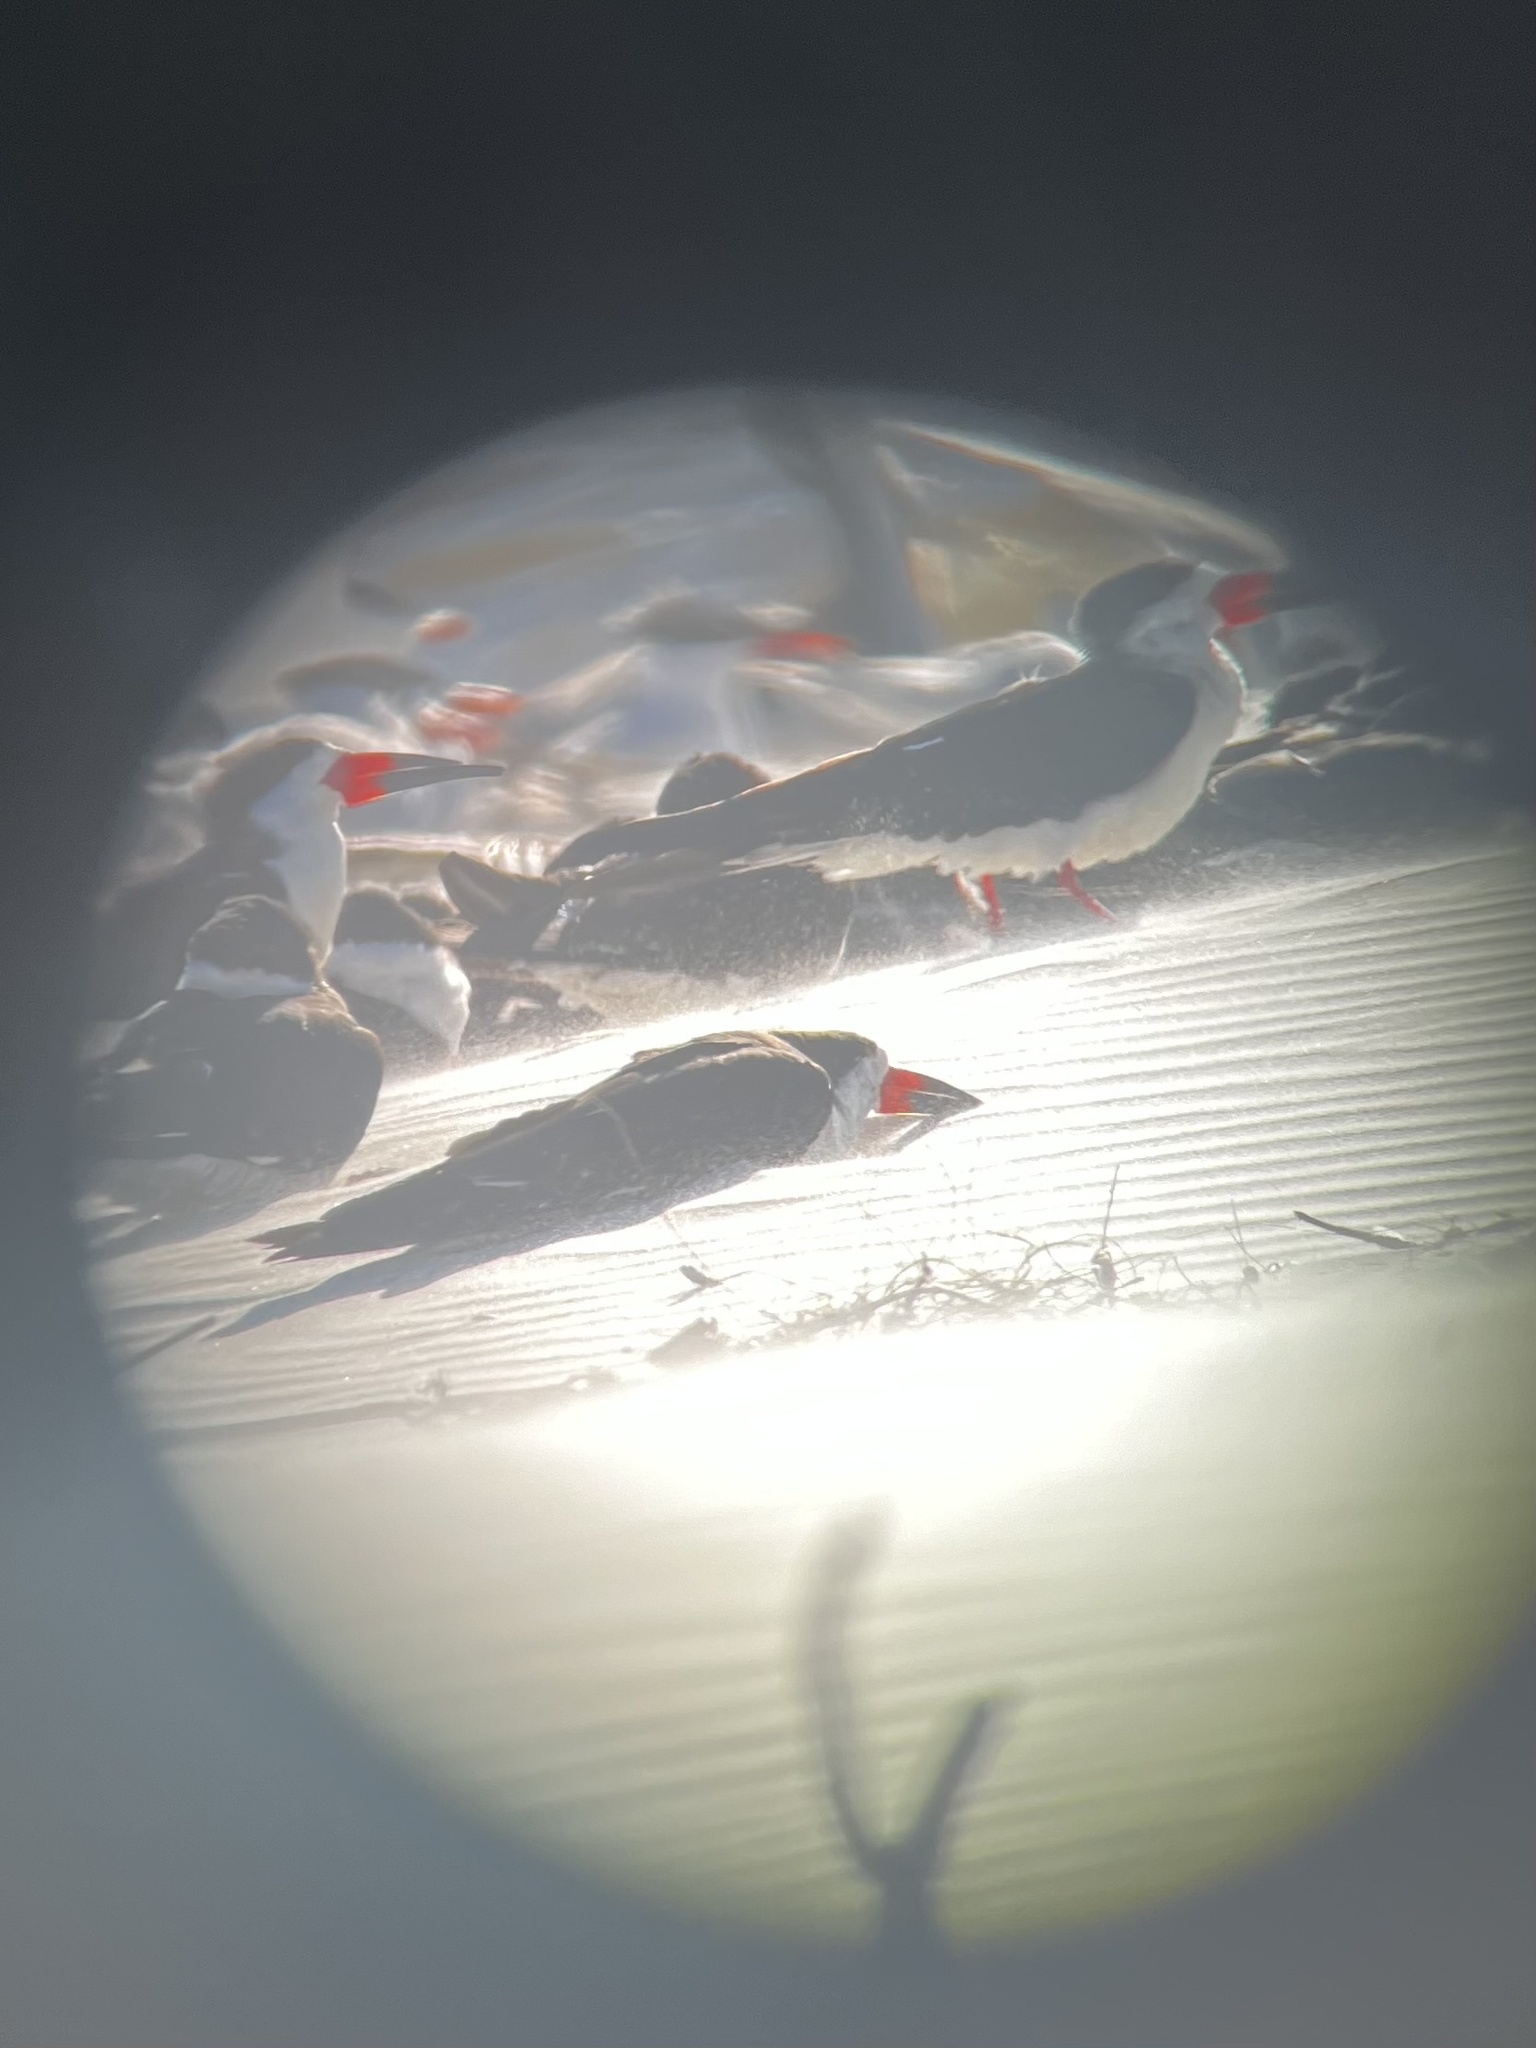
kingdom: Animalia
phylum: Chordata
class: Aves
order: Charadriiformes
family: Laridae
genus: Rynchops
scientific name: Rynchops niger
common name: Black skimmer
